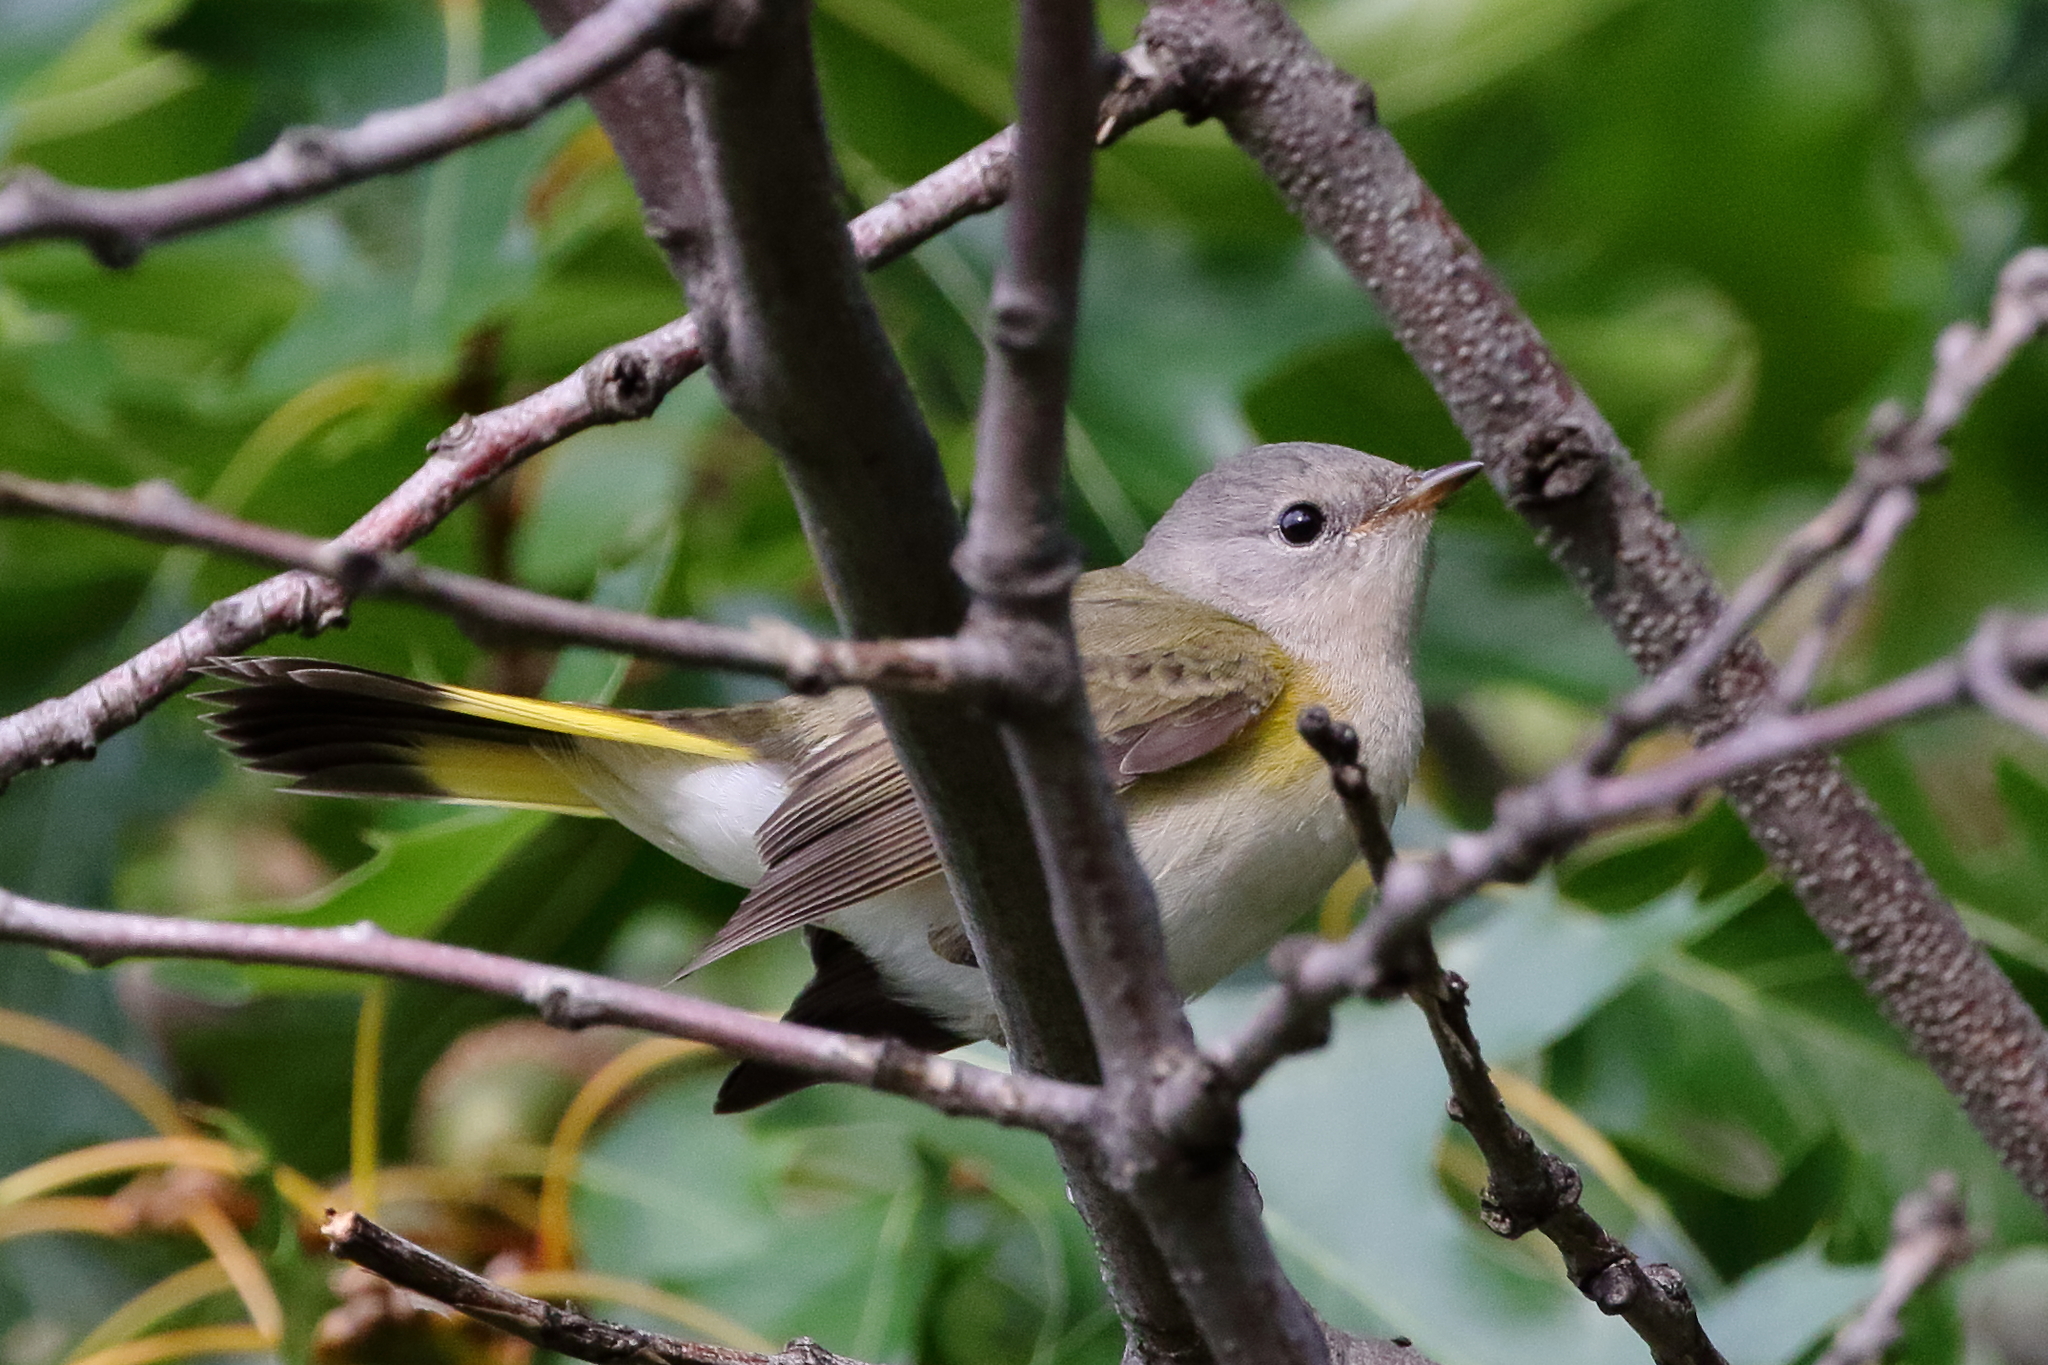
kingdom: Animalia
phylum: Chordata
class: Aves
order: Passeriformes
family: Parulidae
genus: Setophaga
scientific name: Setophaga ruticilla
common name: American redstart
